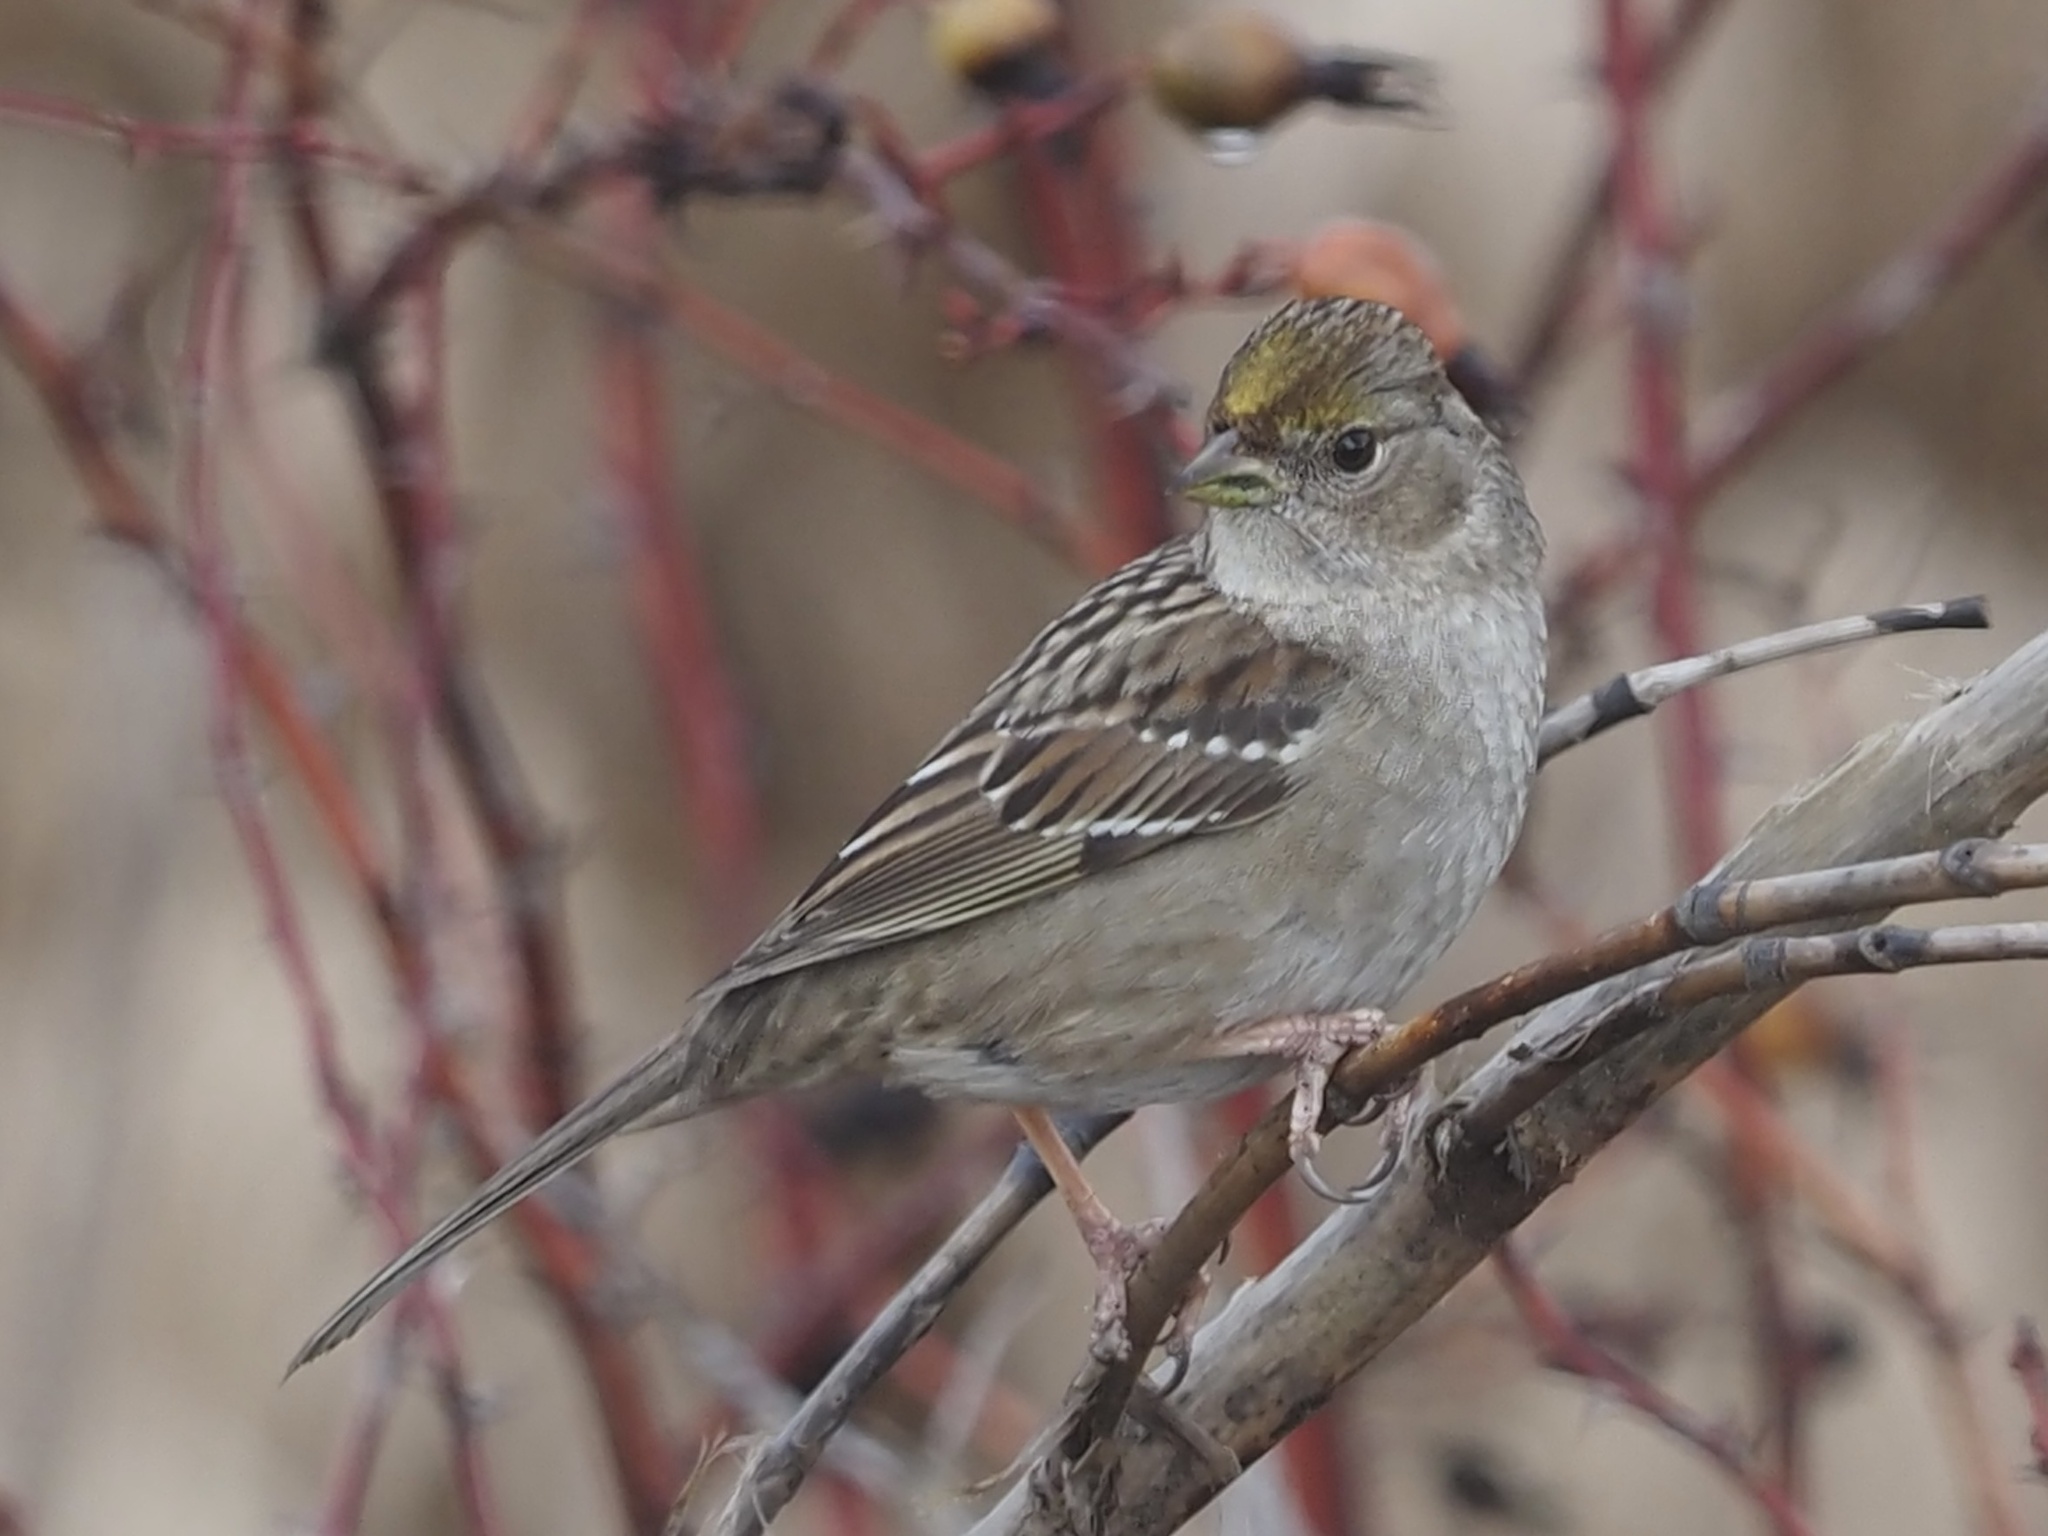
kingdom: Animalia
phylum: Chordata
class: Aves
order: Passeriformes
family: Passerellidae
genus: Zonotrichia
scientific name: Zonotrichia atricapilla
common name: Golden-crowned sparrow
